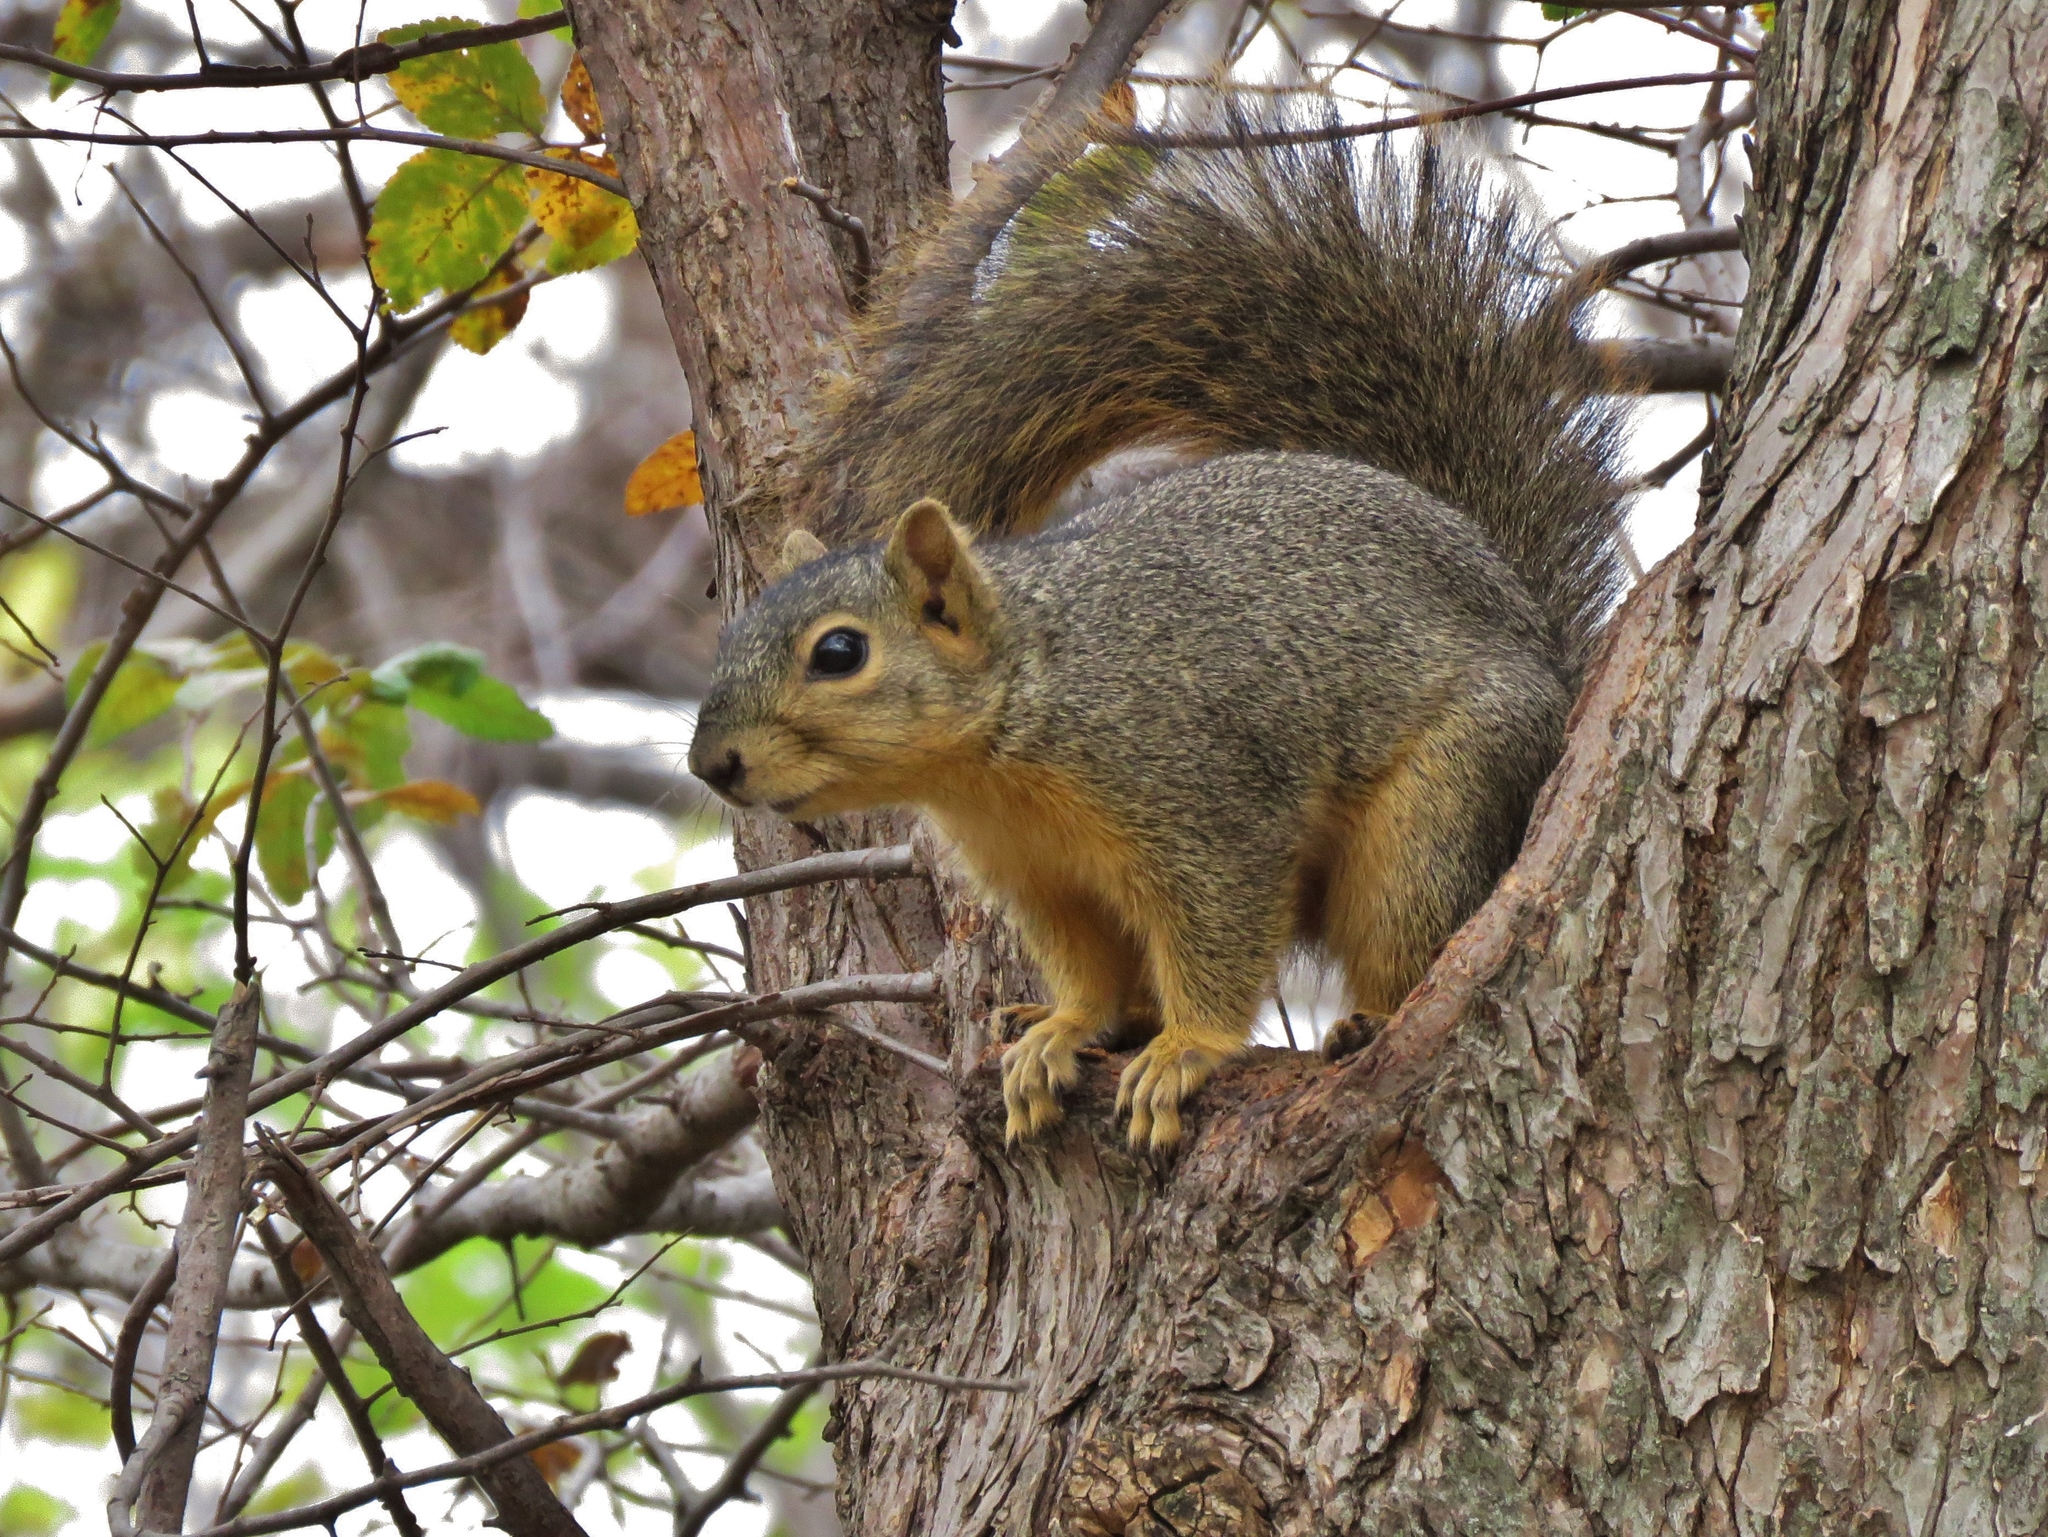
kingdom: Animalia
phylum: Chordata
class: Mammalia
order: Rodentia
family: Sciuridae
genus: Sciurus
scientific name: Sciurus niger
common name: Fox squirrel
